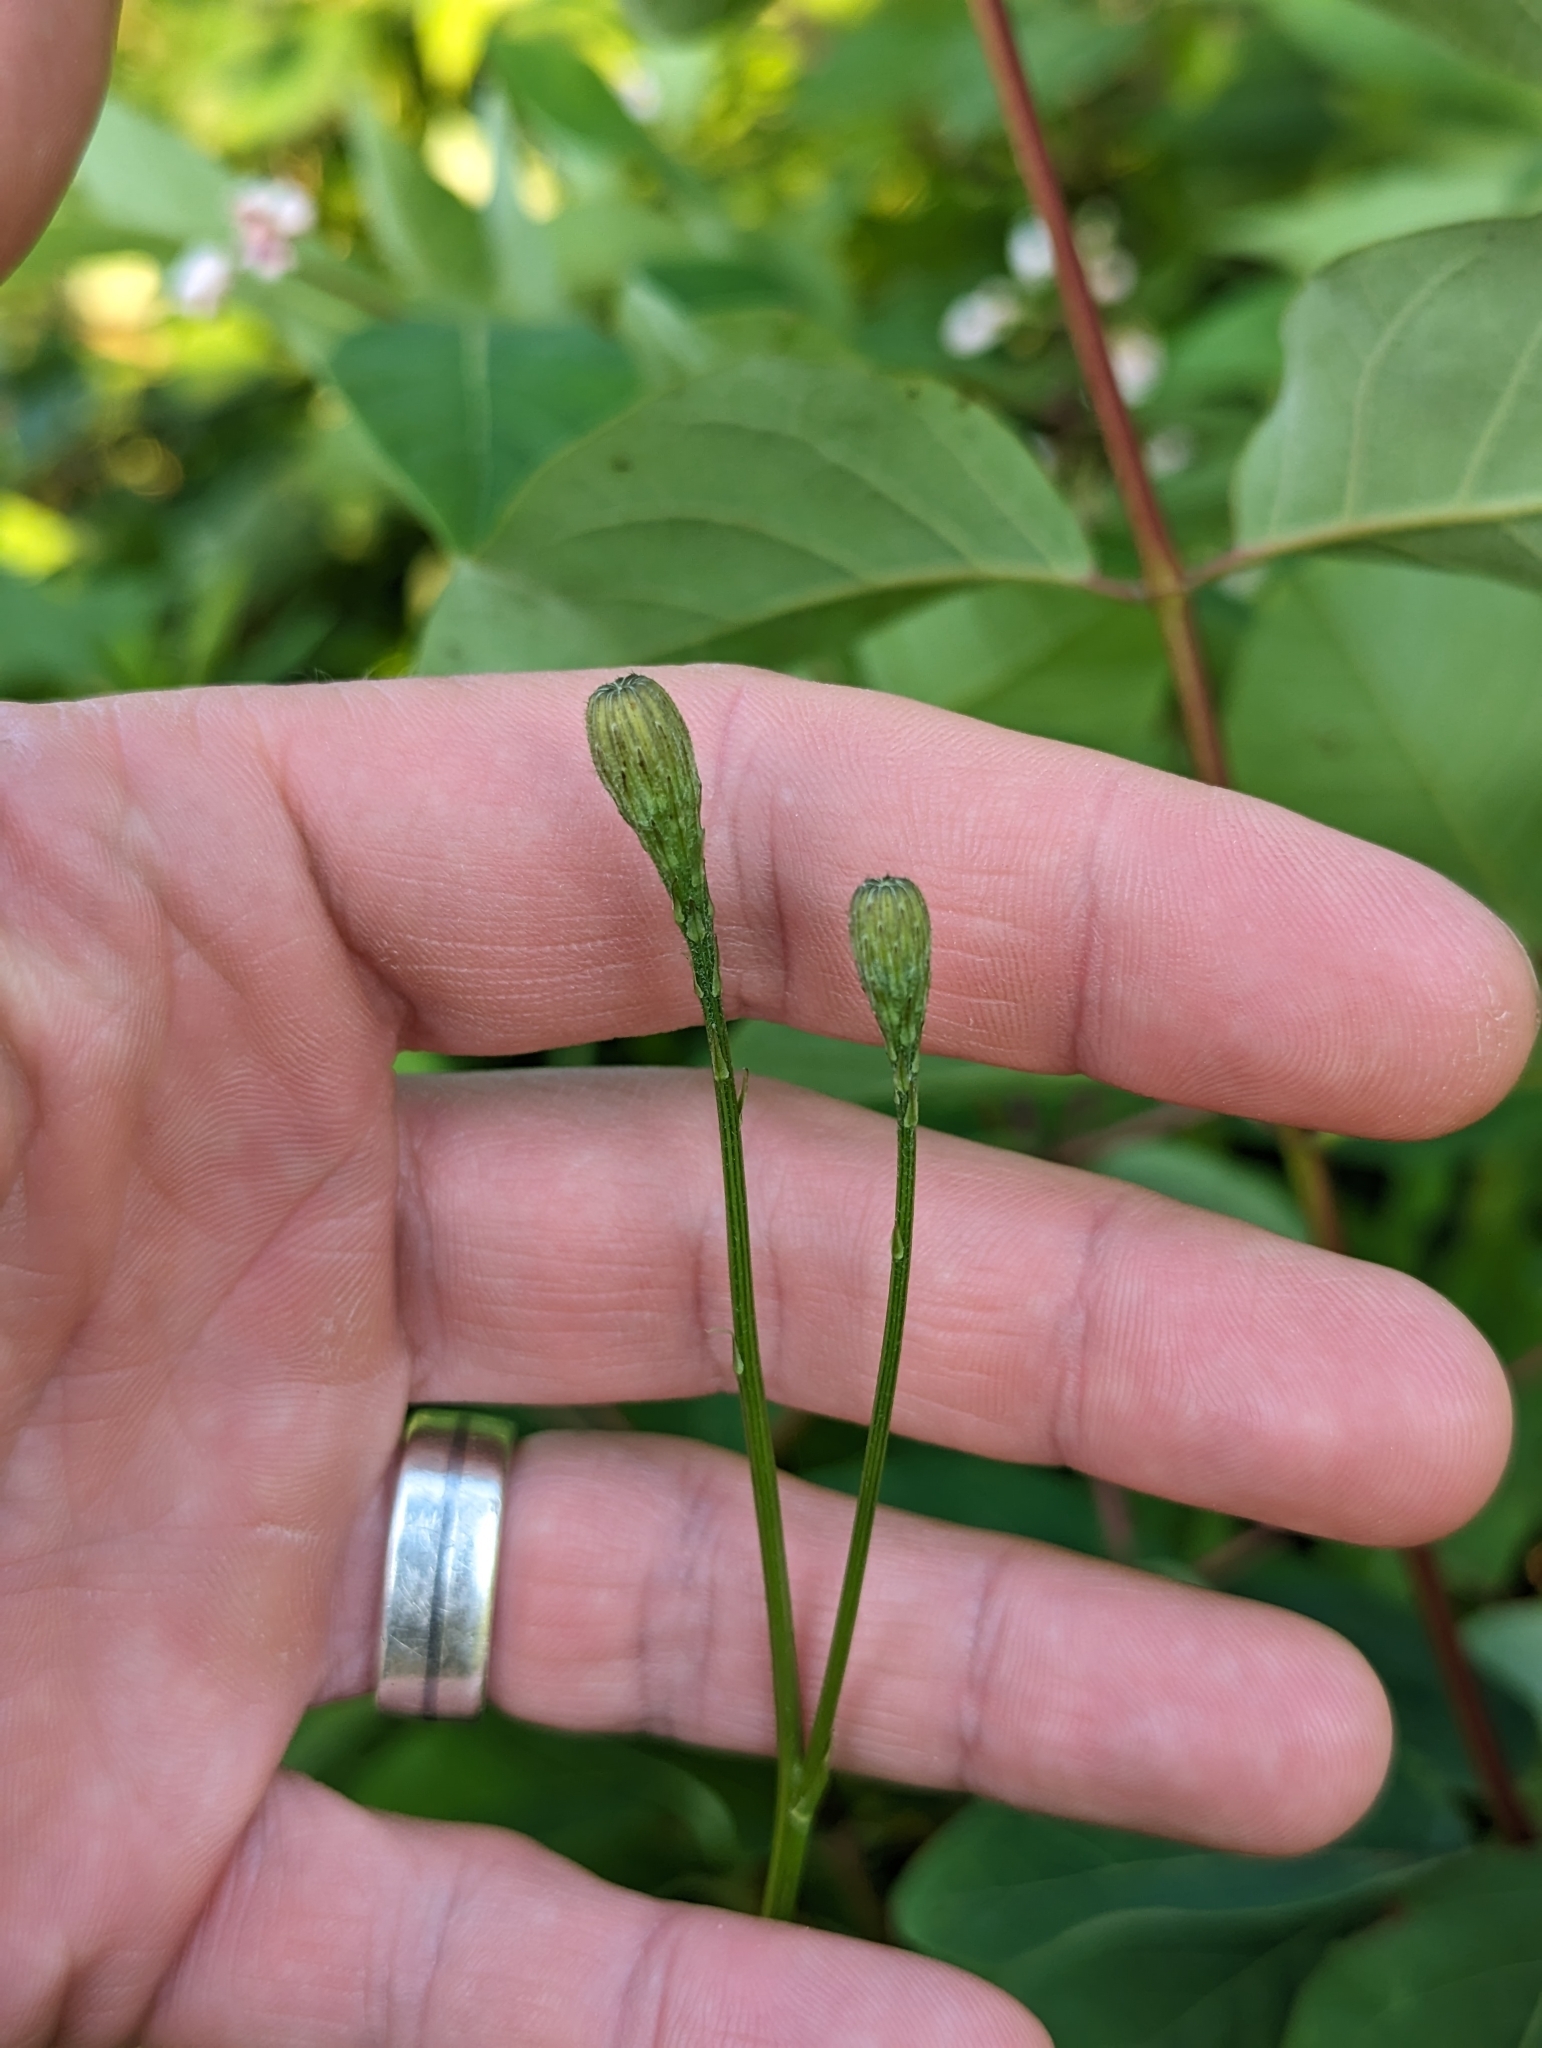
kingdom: Plantae
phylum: Tracheophyta
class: Magnoliopsida
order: Asterales
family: Asteraceae
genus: Scorzoneroides
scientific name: Scorzoneroides autumnalis
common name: Autumn hawkbit
